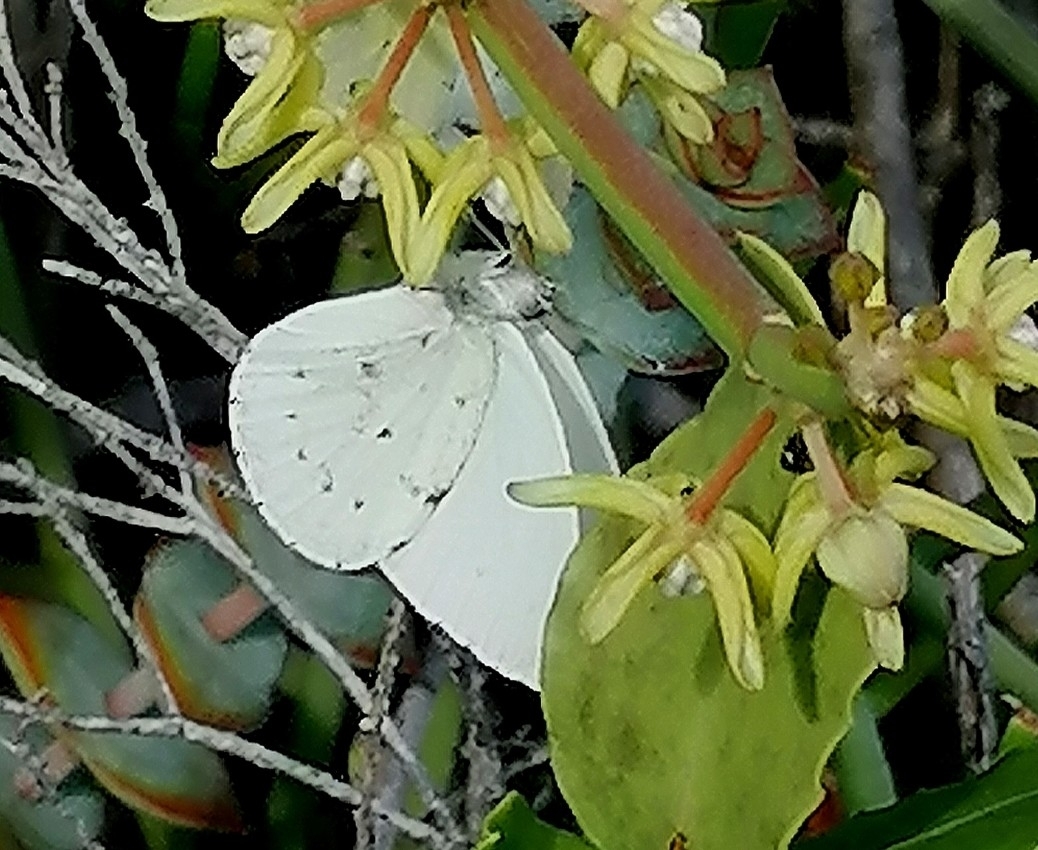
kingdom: Animalia
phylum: Arthropoda
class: Insecta
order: Lepidoptera
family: Pieridae
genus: Dixeia
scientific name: Dixeia charina
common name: African small white
